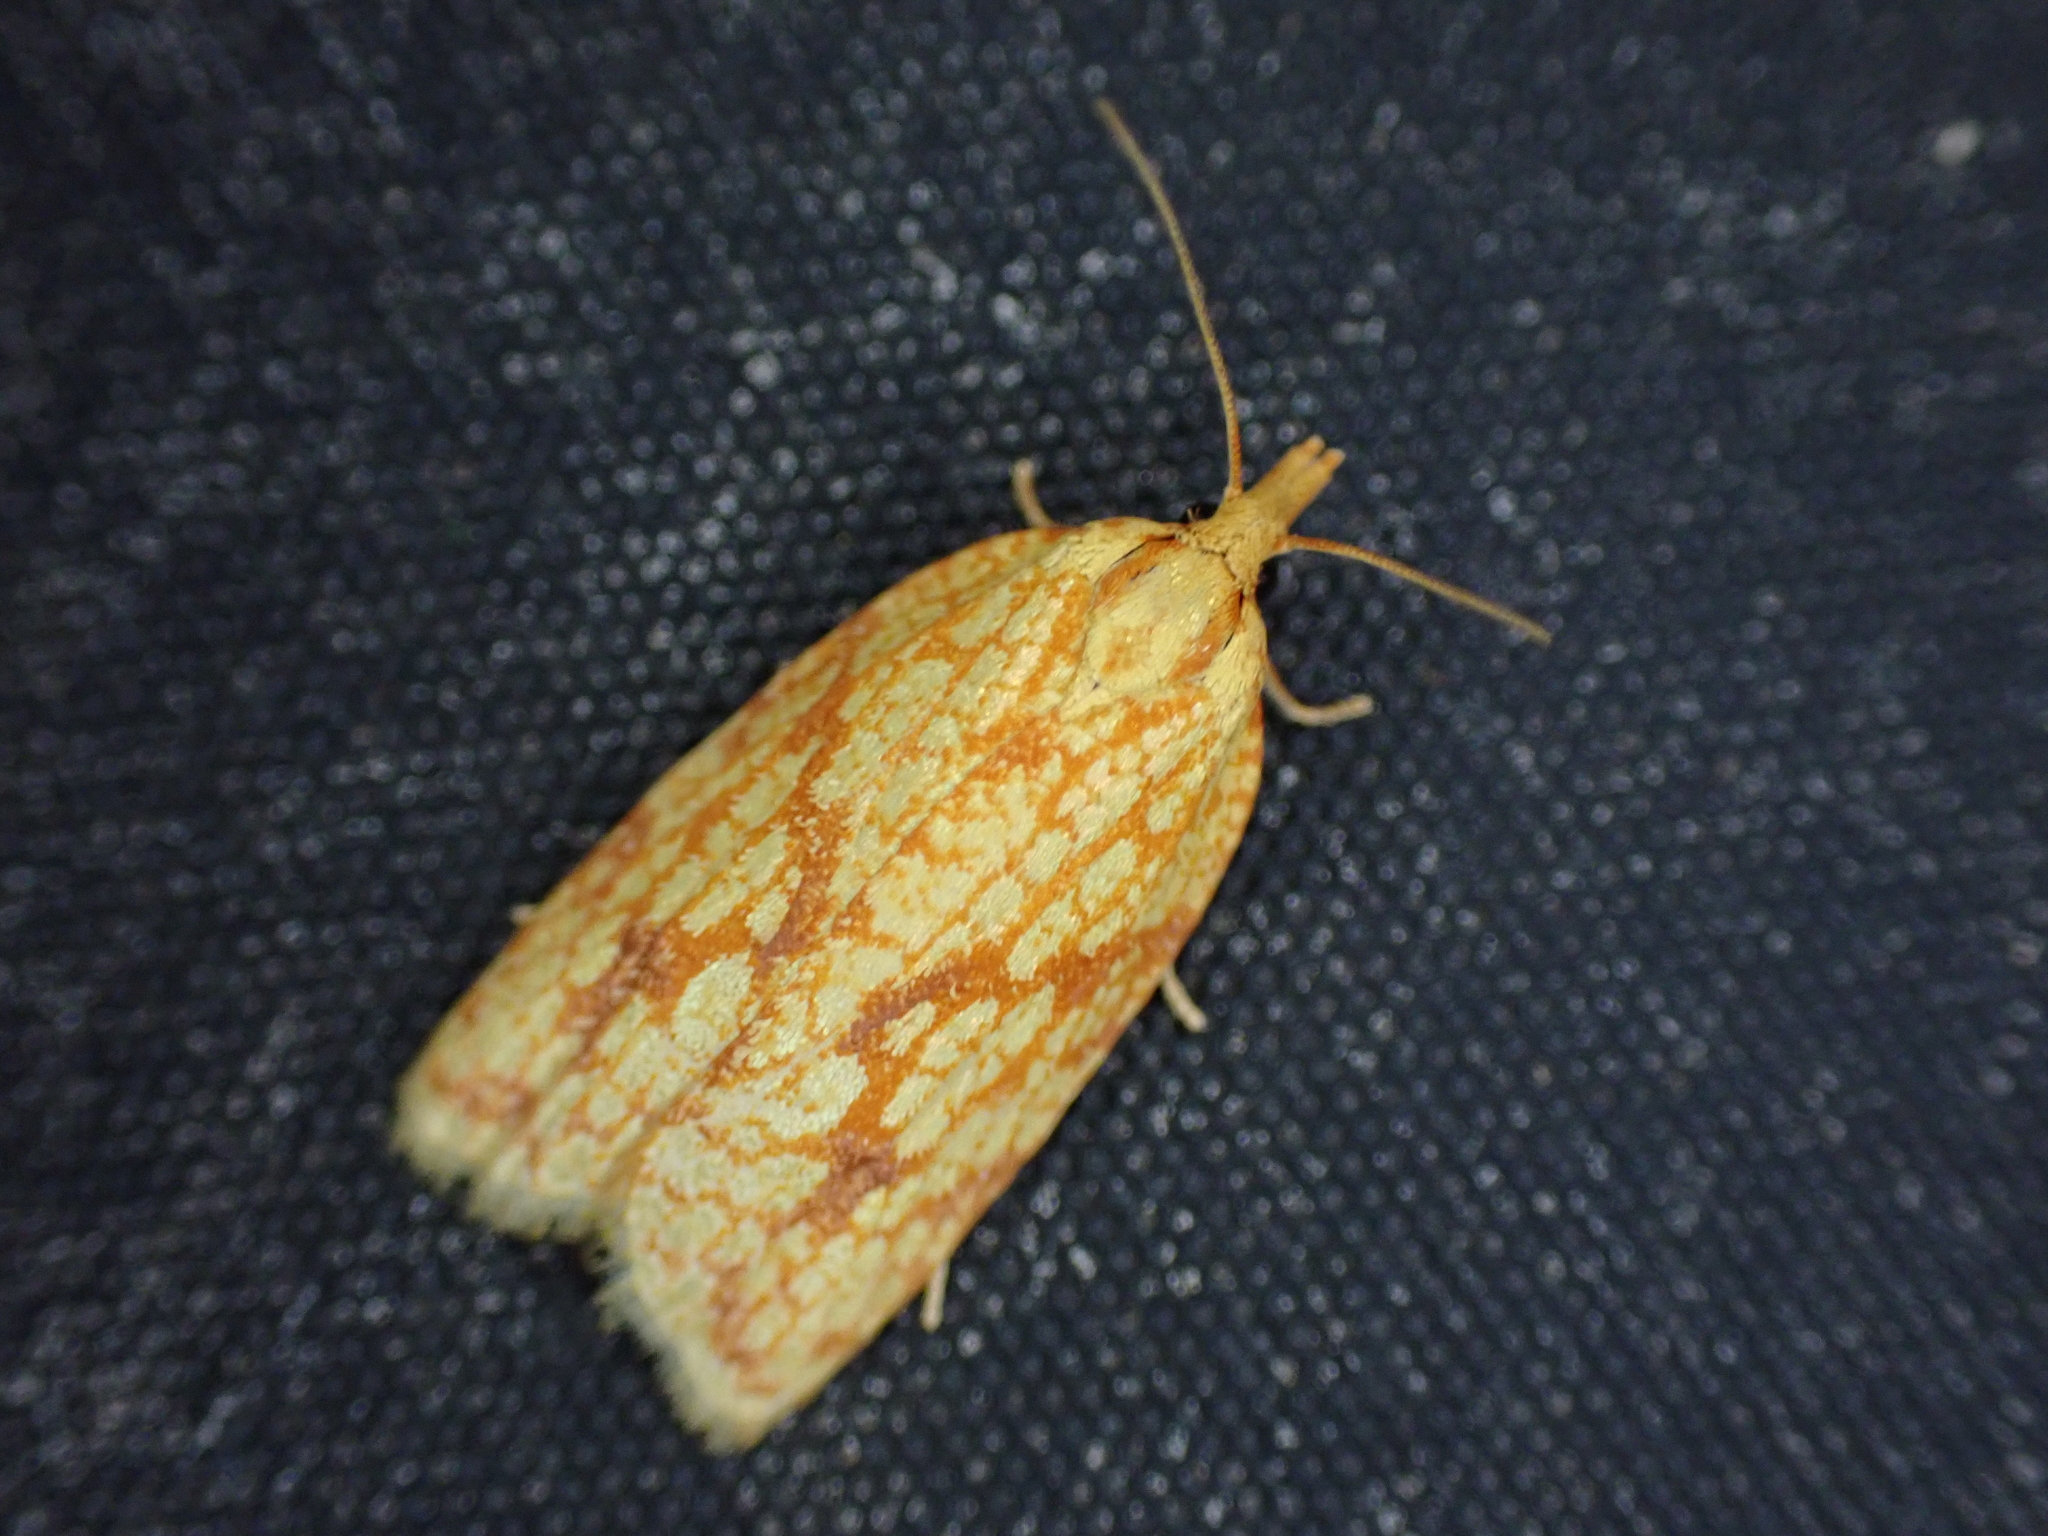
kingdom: Animalia
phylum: Arthropoda
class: Insecta
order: Lepidoptera
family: Tortricidae
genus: Sparganothis
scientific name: Sparganothis sulfureana
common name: Sparganothis fruitworm moth
